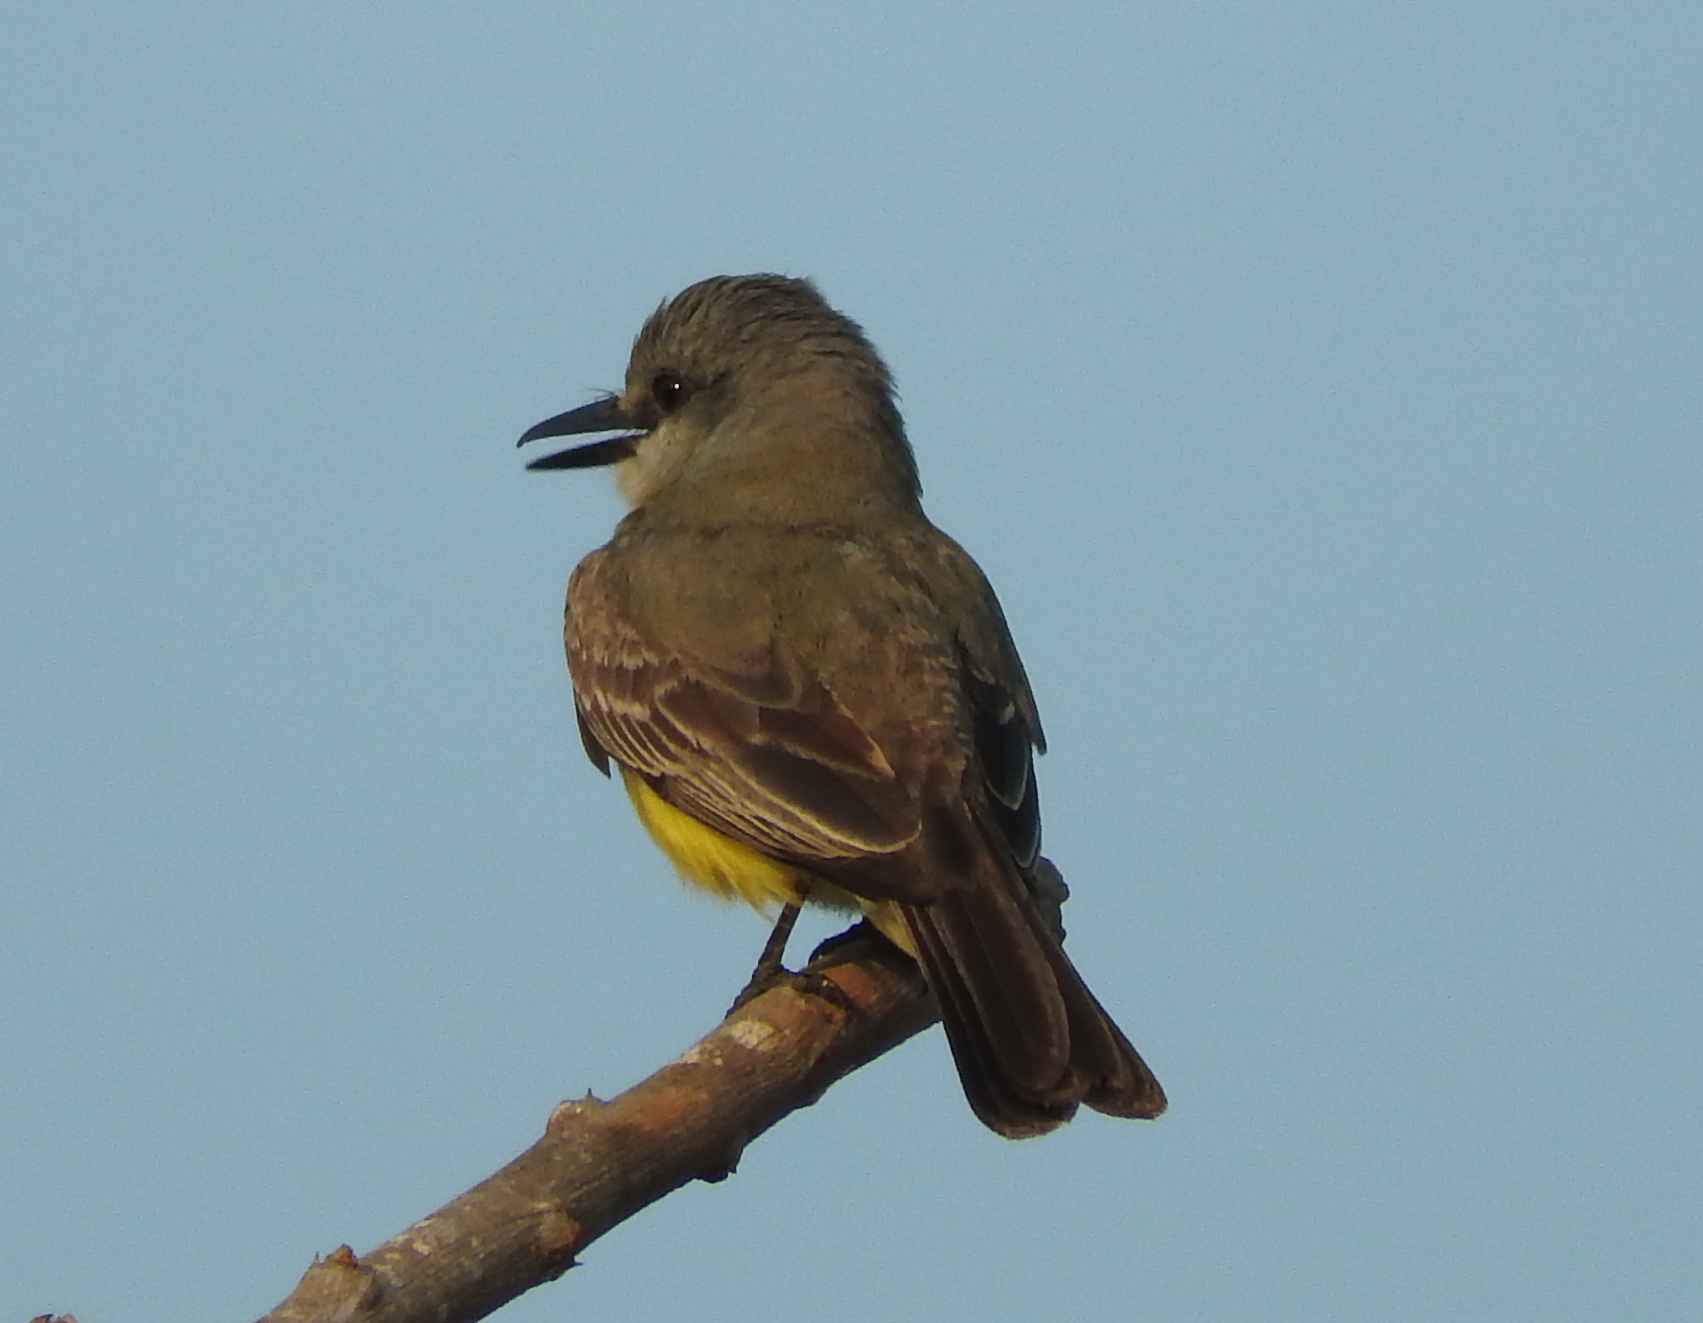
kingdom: Animalia
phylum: Chordata
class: Aves
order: Passeriformes
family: Tyrannidae
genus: Tyrannus
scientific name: Tyrannus melancholicus
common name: Tropical kingbird
